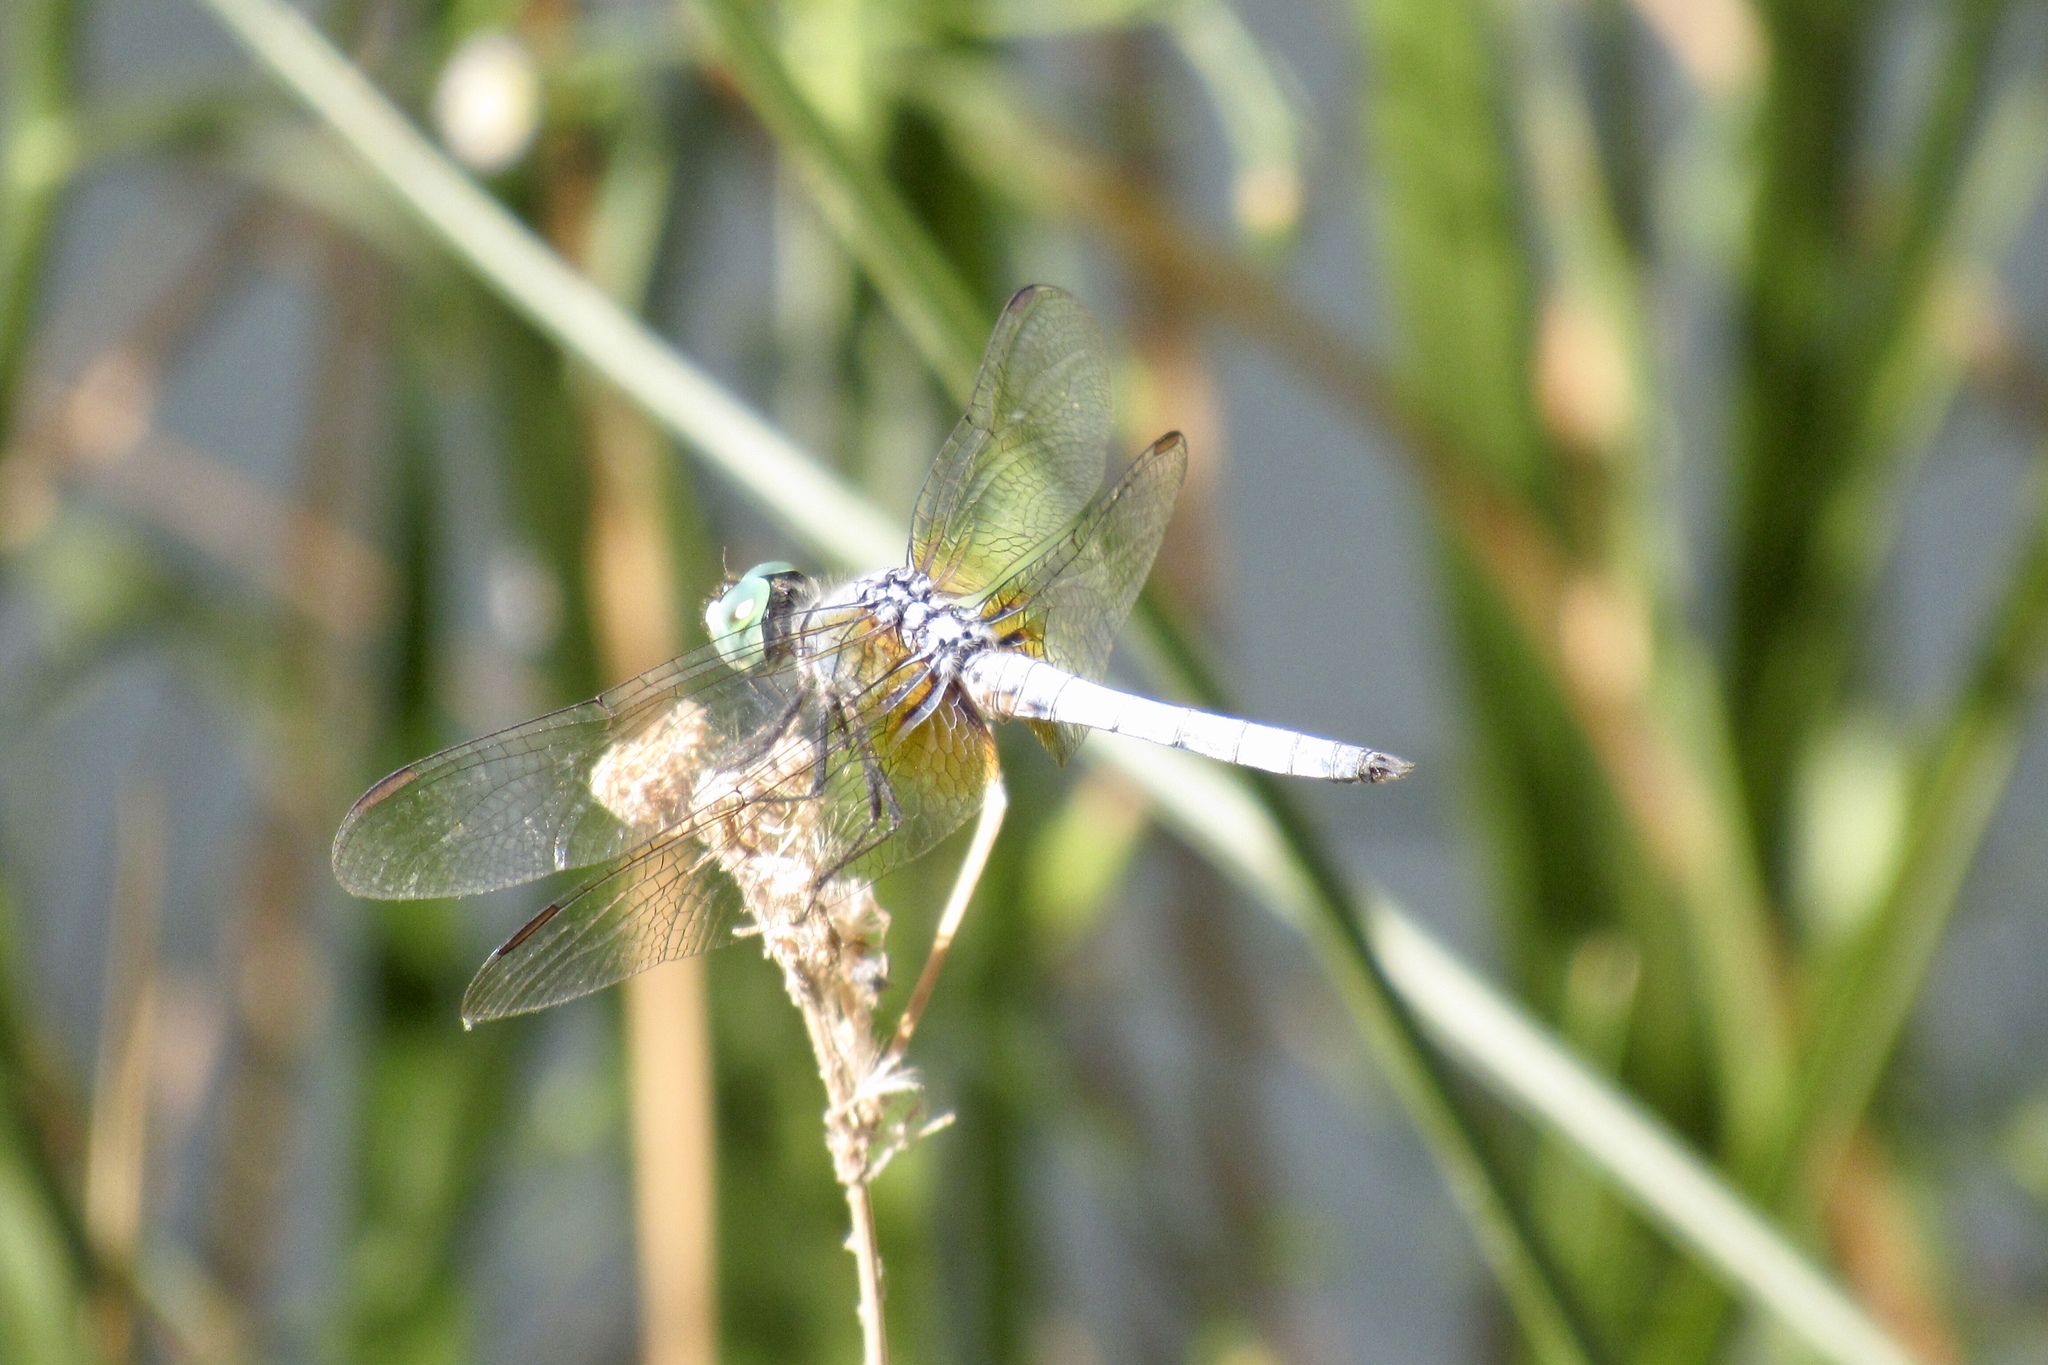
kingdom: Animalia
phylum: Arthropoda
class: Insecta
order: Odonata
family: Libellulidae
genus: Pachydiplax
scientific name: Pachydiplax longipennis
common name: Blue dasher
